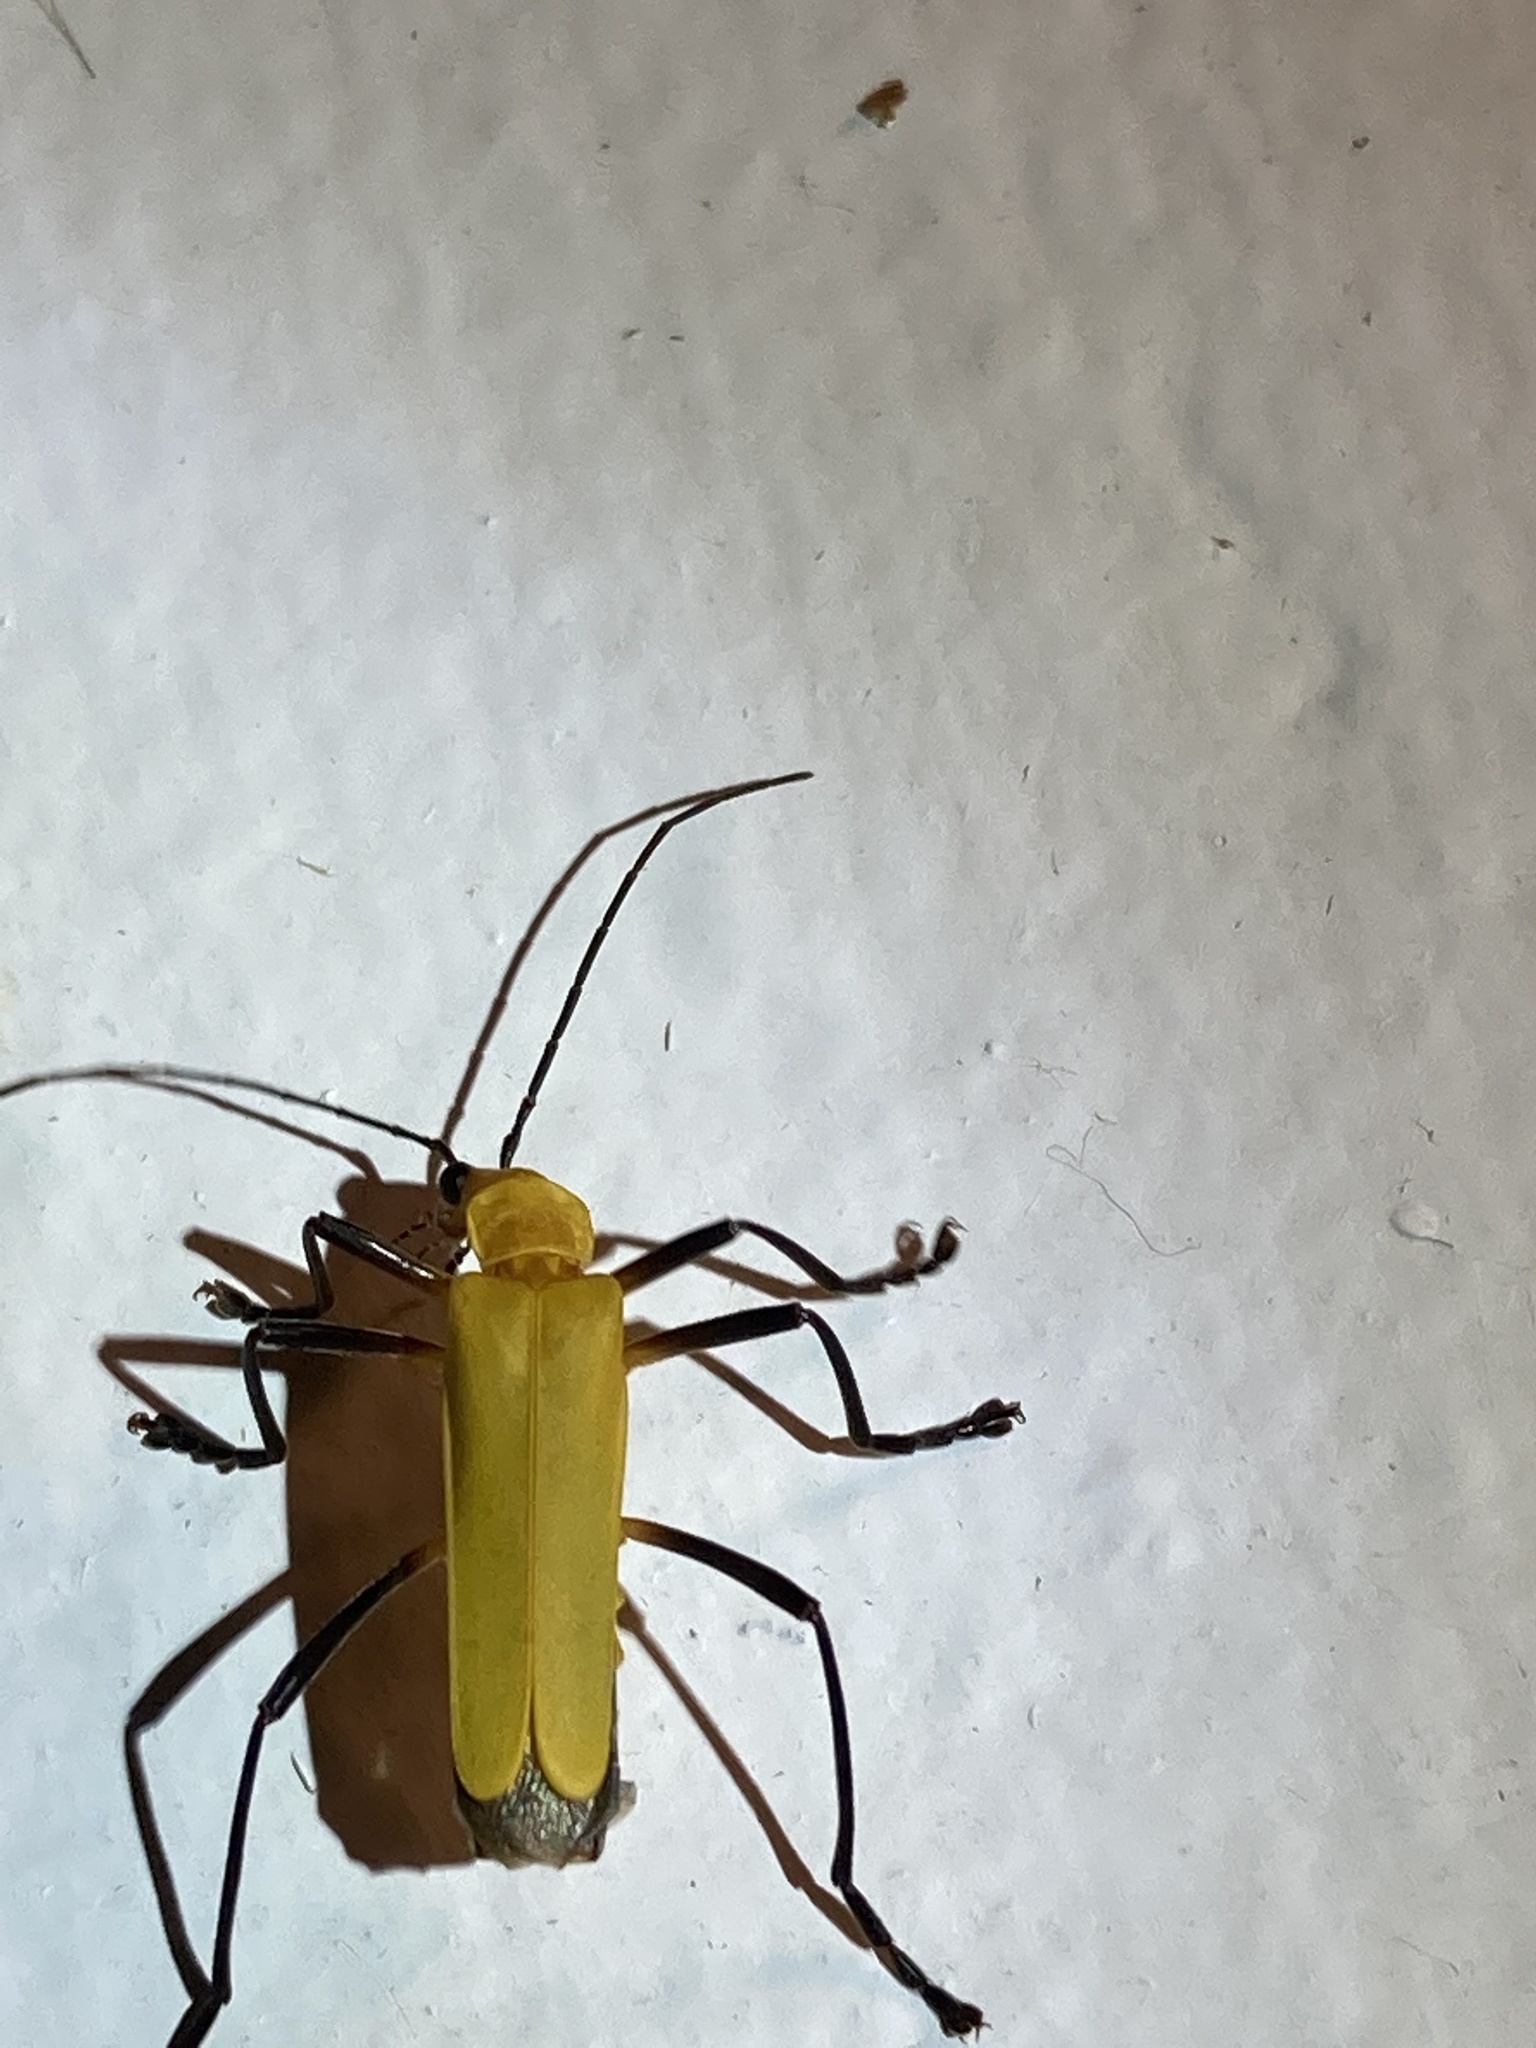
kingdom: Animalia
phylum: Arthropoda
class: Insecta
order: Coleoptera
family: Cantharidae
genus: Chauliognathus
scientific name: Chauliognathus sulphureus
